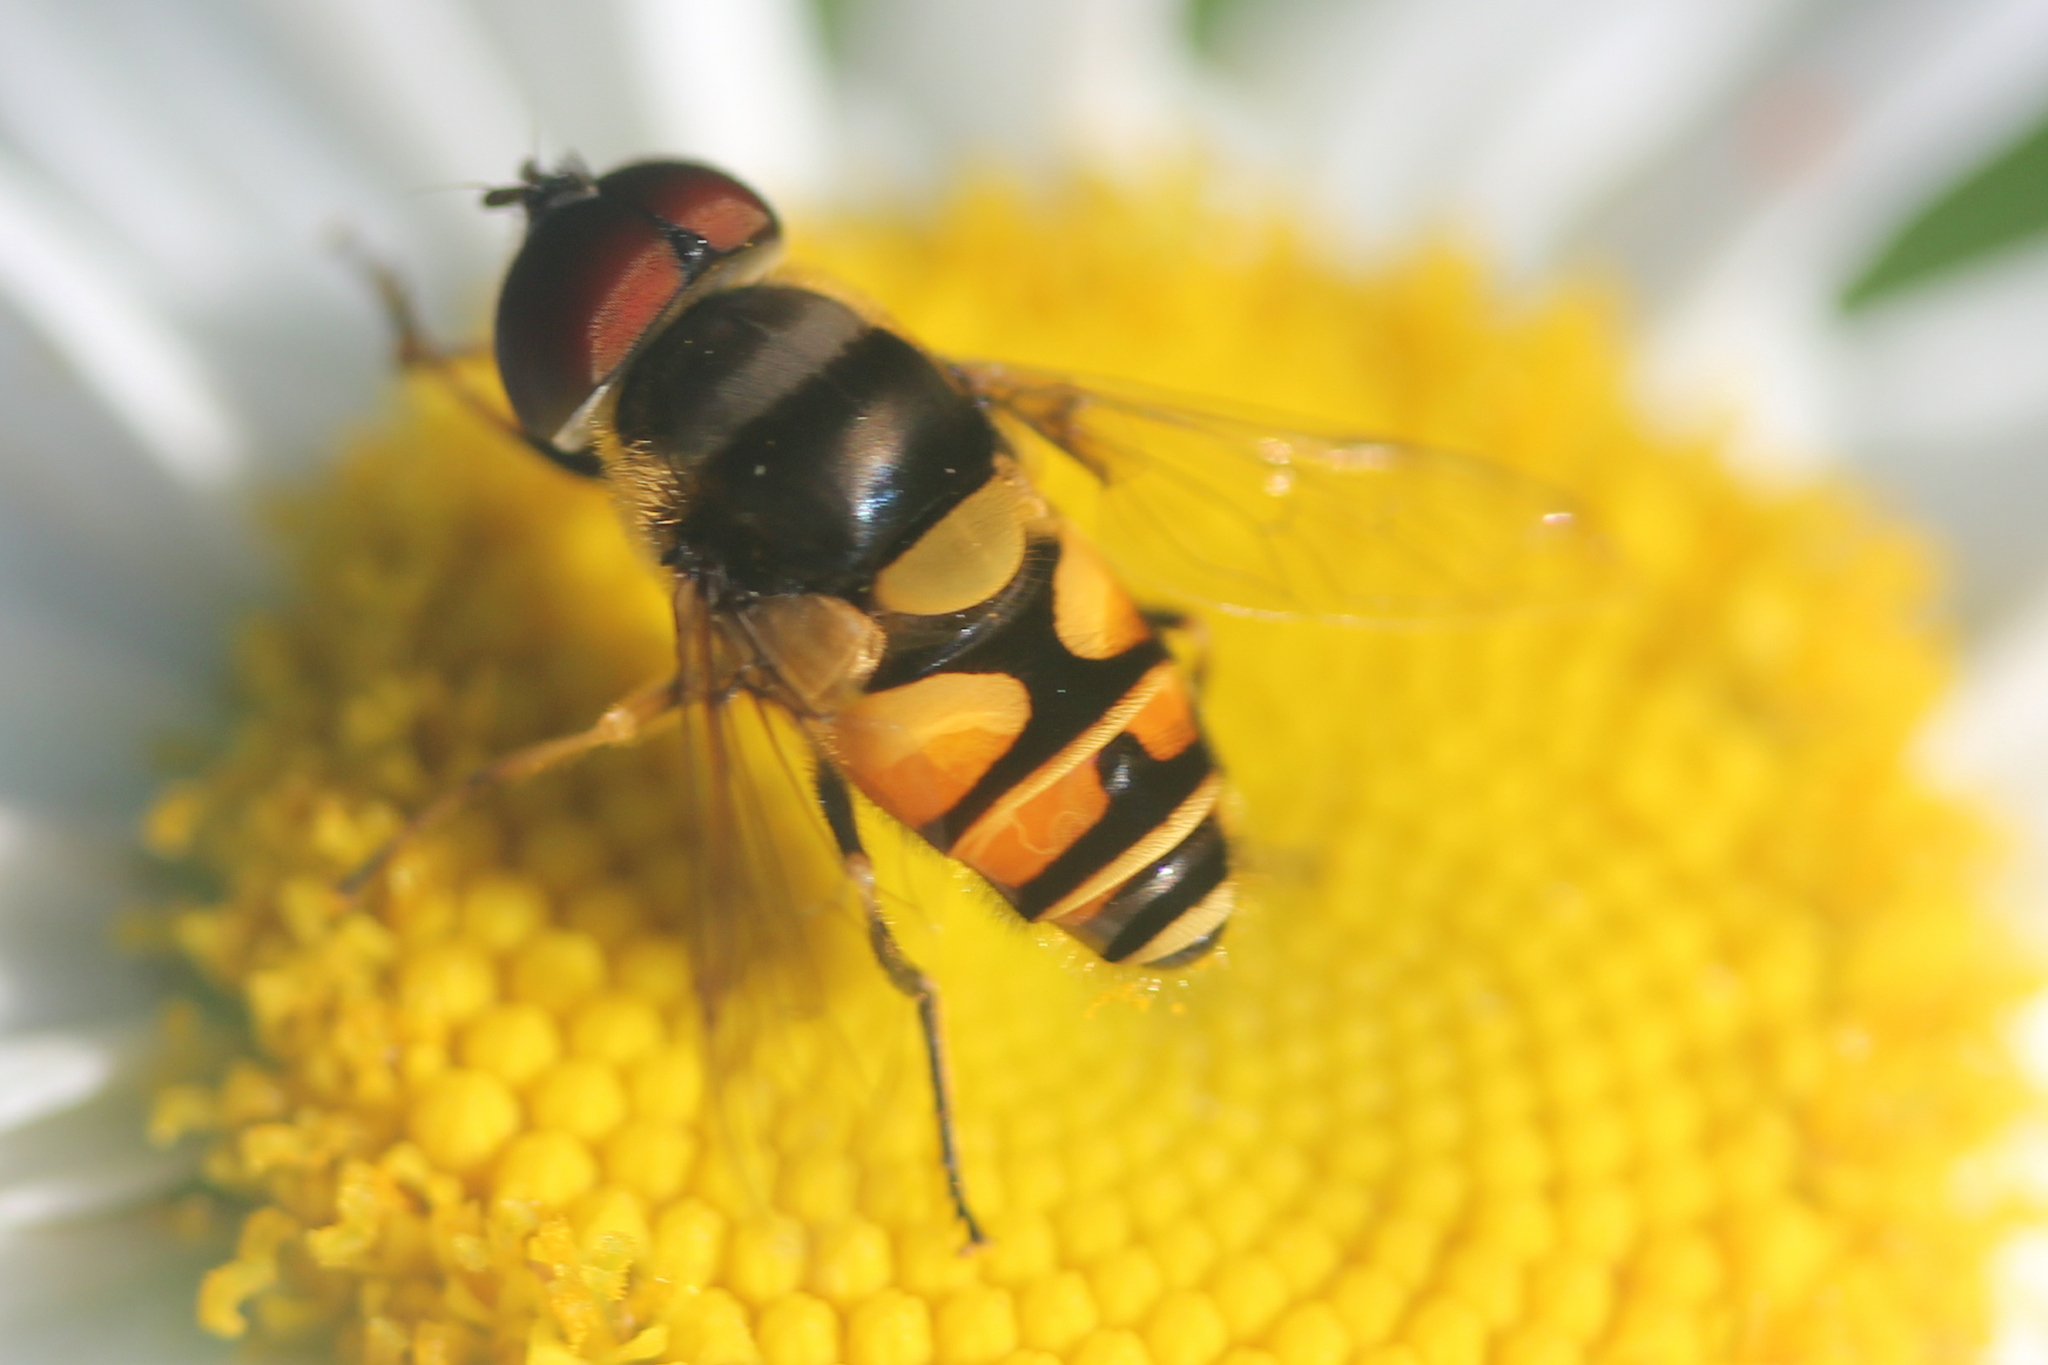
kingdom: Animalia
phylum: Arthropoda
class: Insecta
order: Diptera
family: Syrphidae
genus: Eristalis
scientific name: Eristalis transversa
